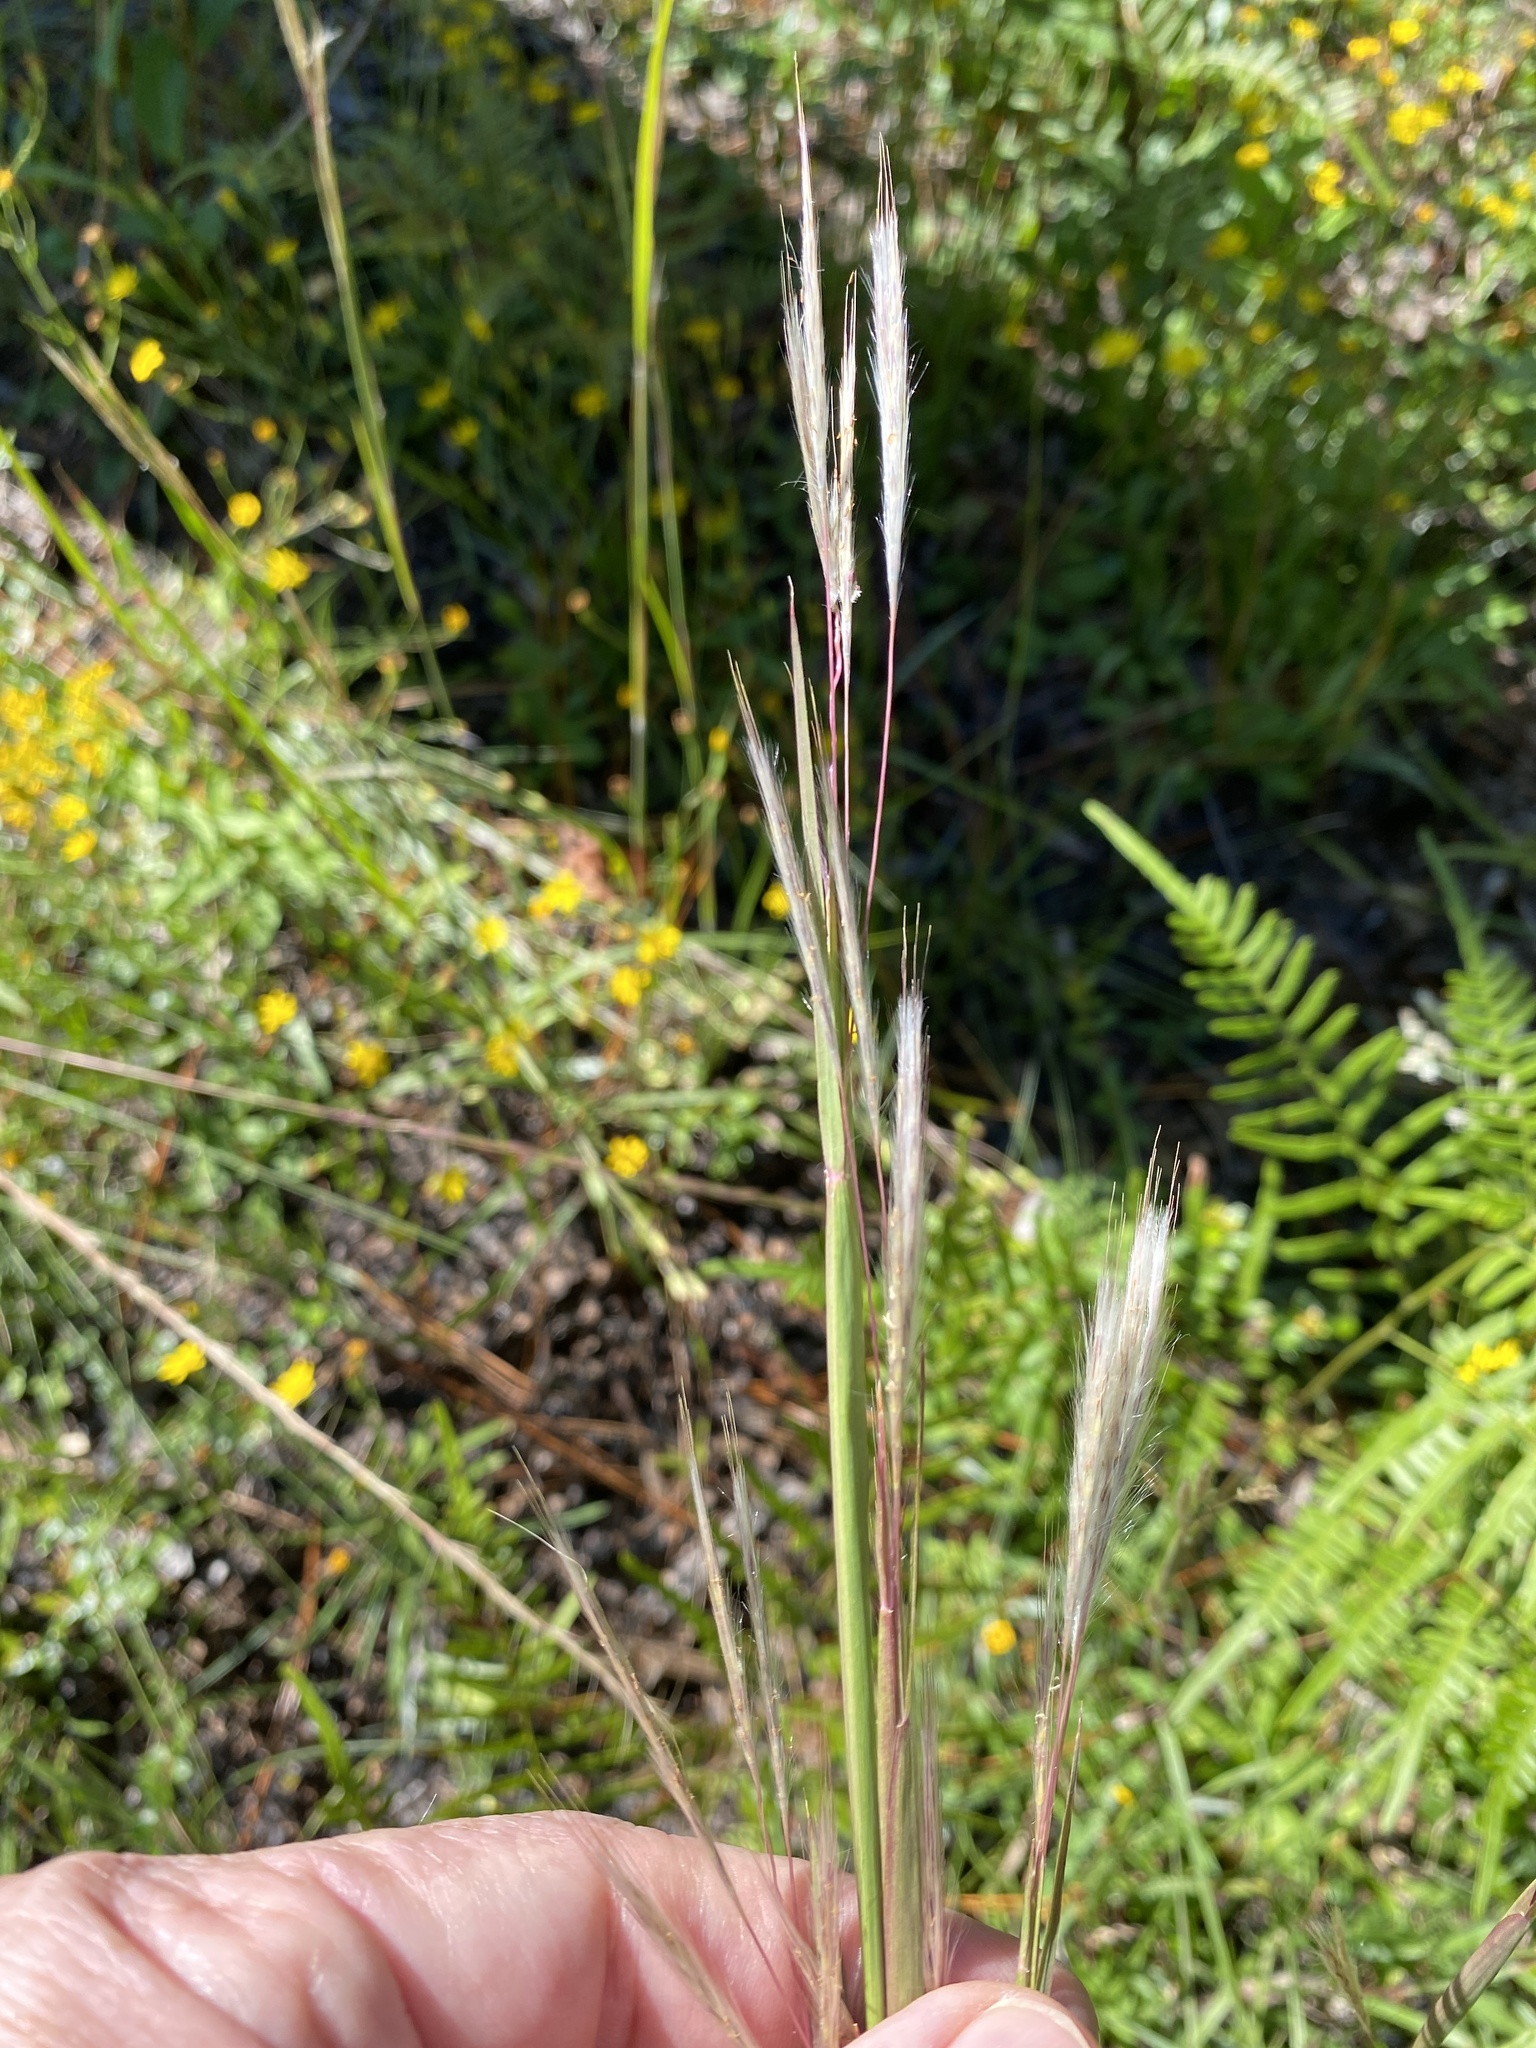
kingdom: Plantae
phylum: Tracheophyta
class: Liliopsida
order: Poales
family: Poaceae
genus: Andropogon
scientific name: Andropogon ternarius
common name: Split bluestem
